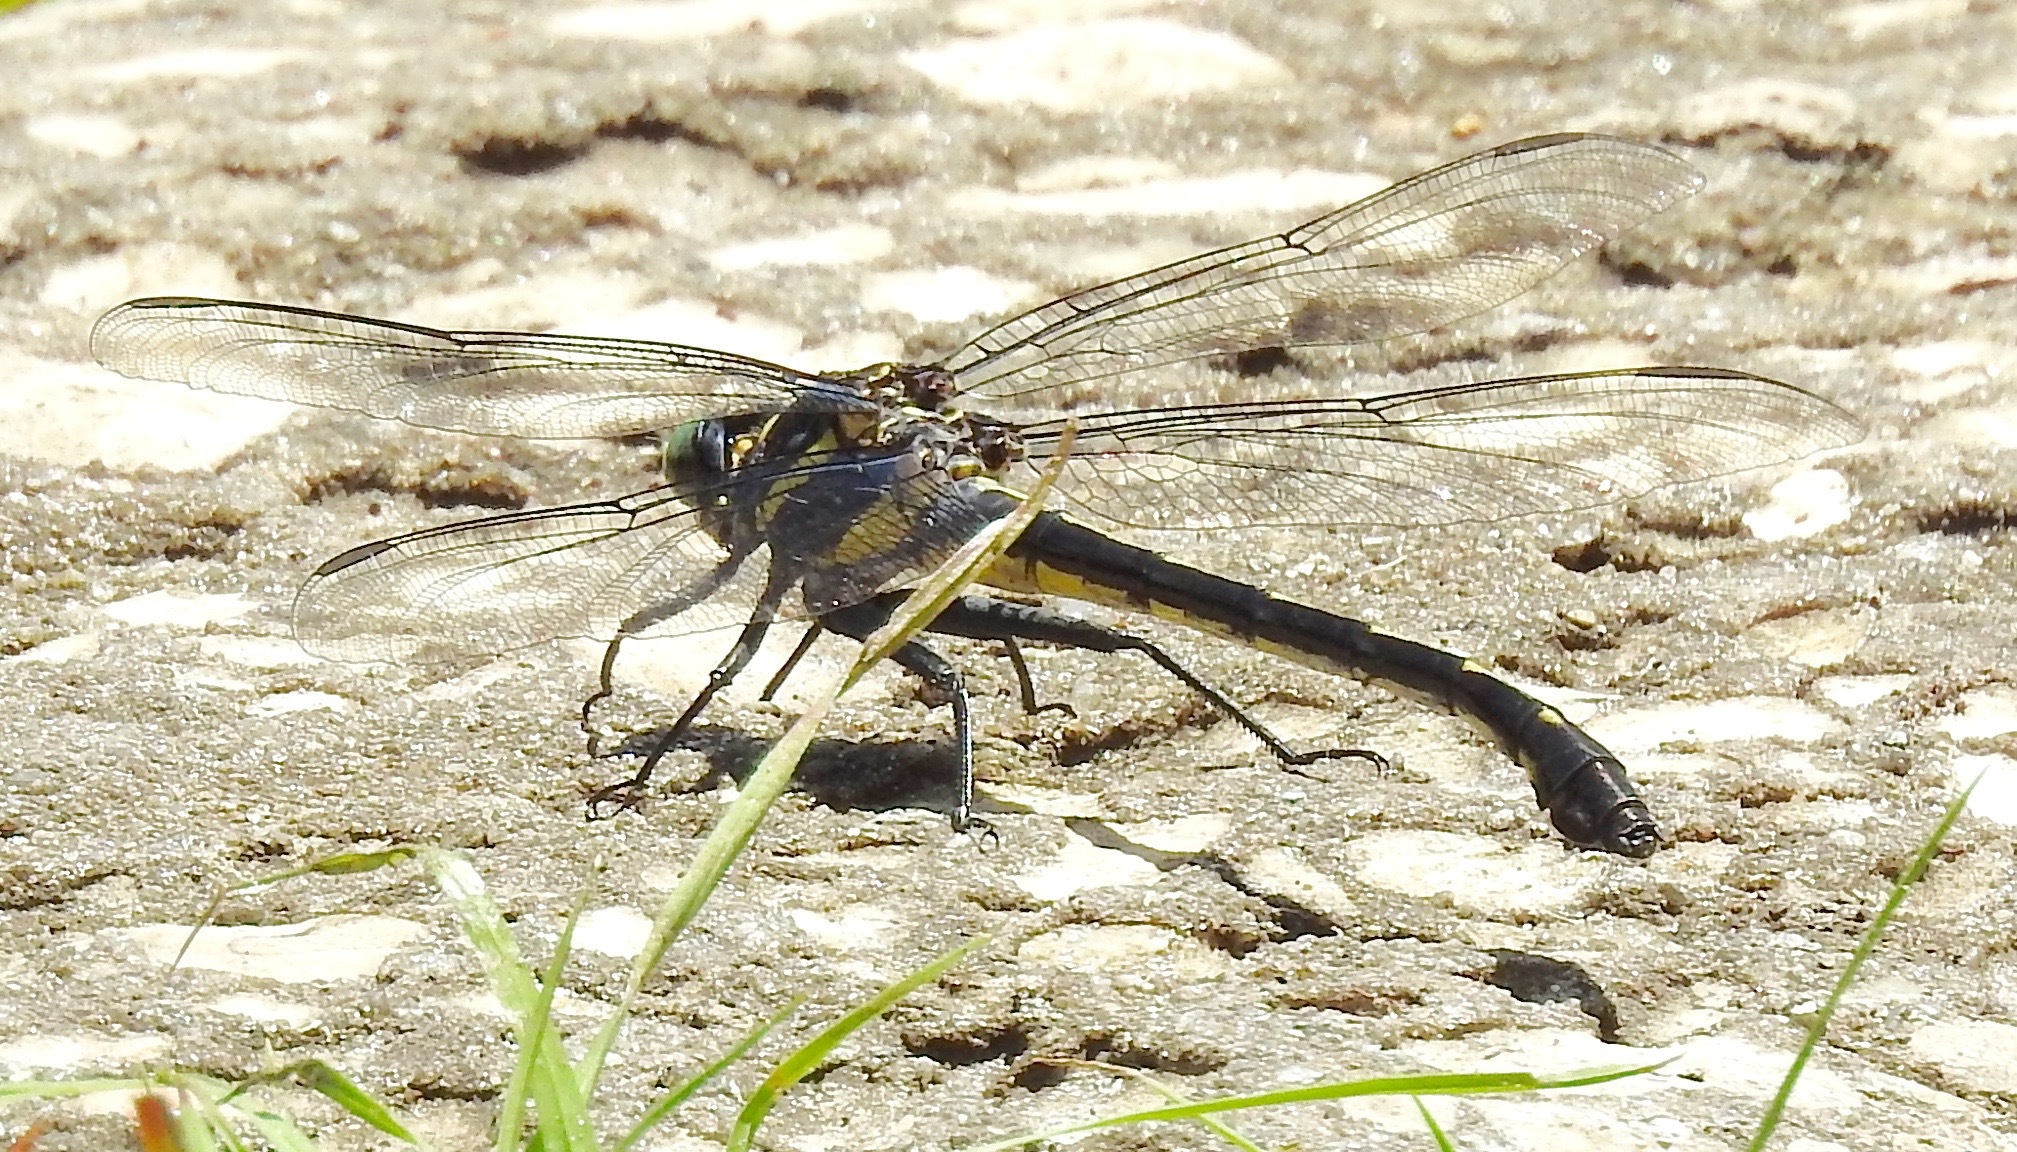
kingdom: Animalia
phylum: Arthropoda
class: Insecta
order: Odonata
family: Gomphidae
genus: Hagenius
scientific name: Hagenius brevistylus
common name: Dragonhunter
